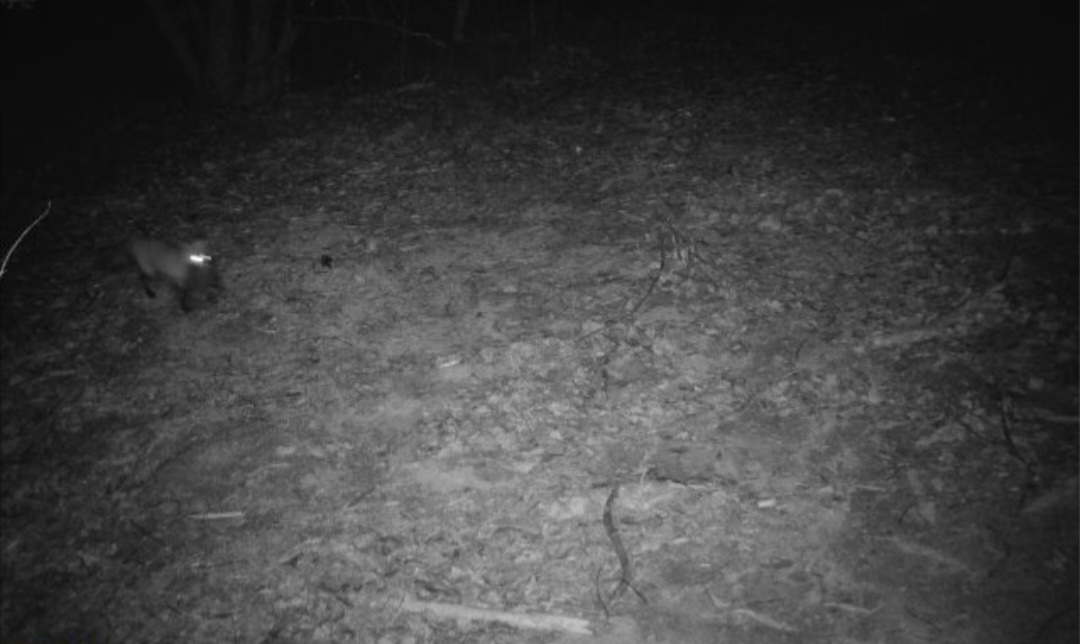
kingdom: Animalia
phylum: Chordata
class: Mammalia
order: Carnivora
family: Canidae
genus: Vulpes
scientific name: Vulpes vulpes
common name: Red fox
